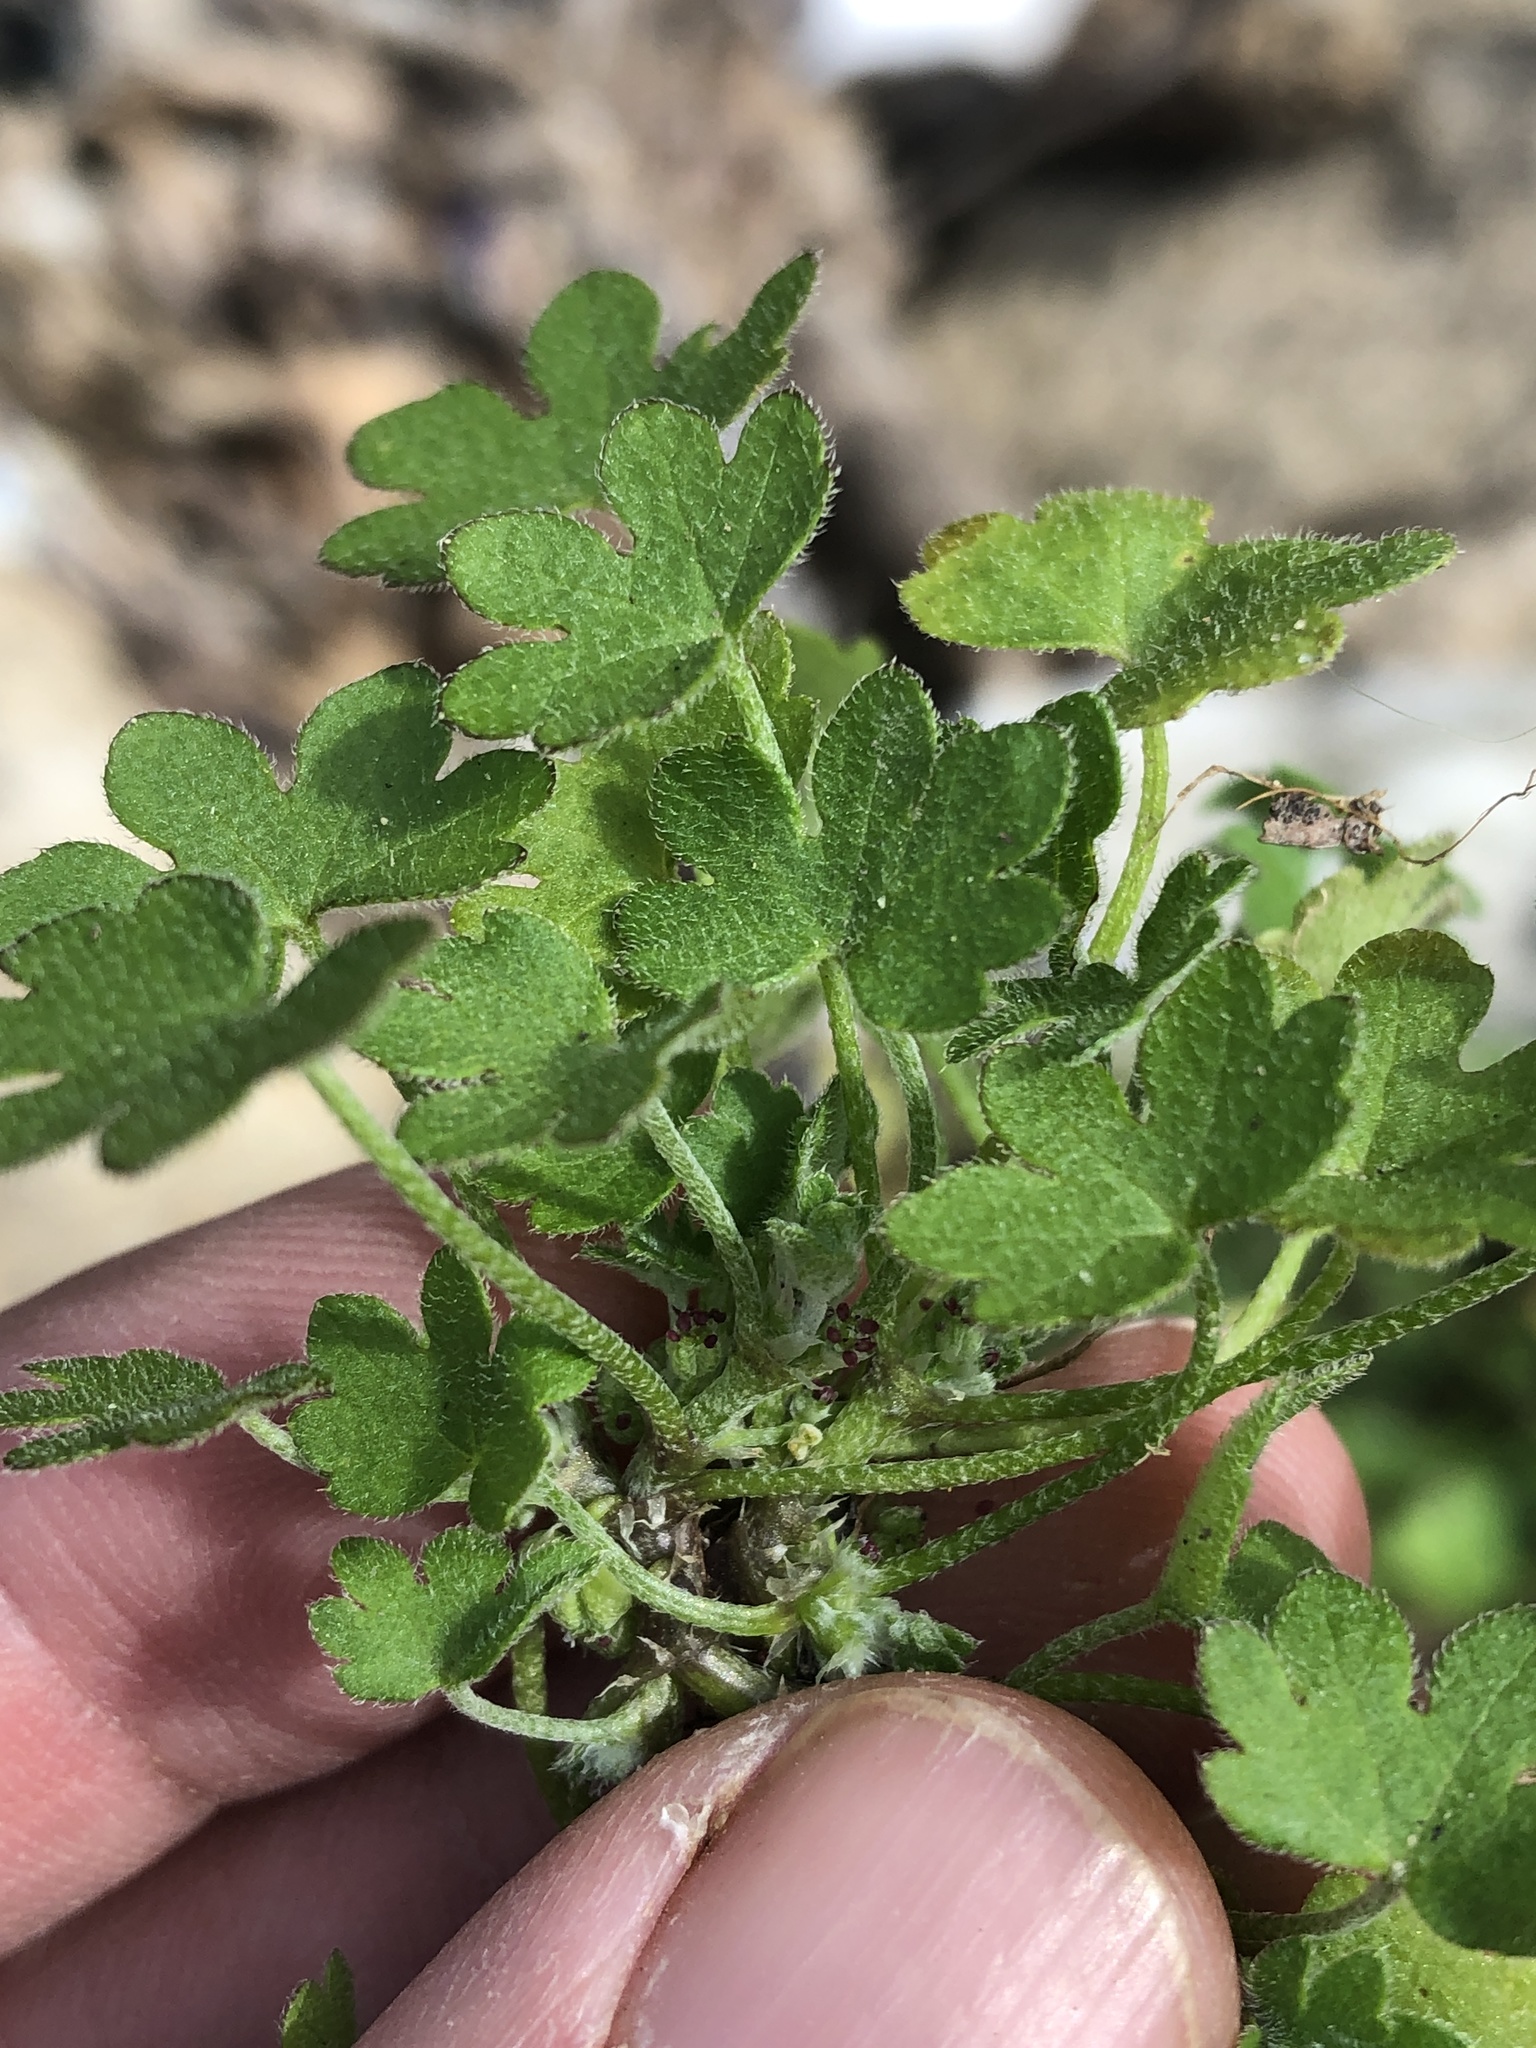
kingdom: Plantae
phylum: Tracheophyta
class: Magnoliopsida
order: Apiales
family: Apiaceae
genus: Bowlesia
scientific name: Bowlesia incana
